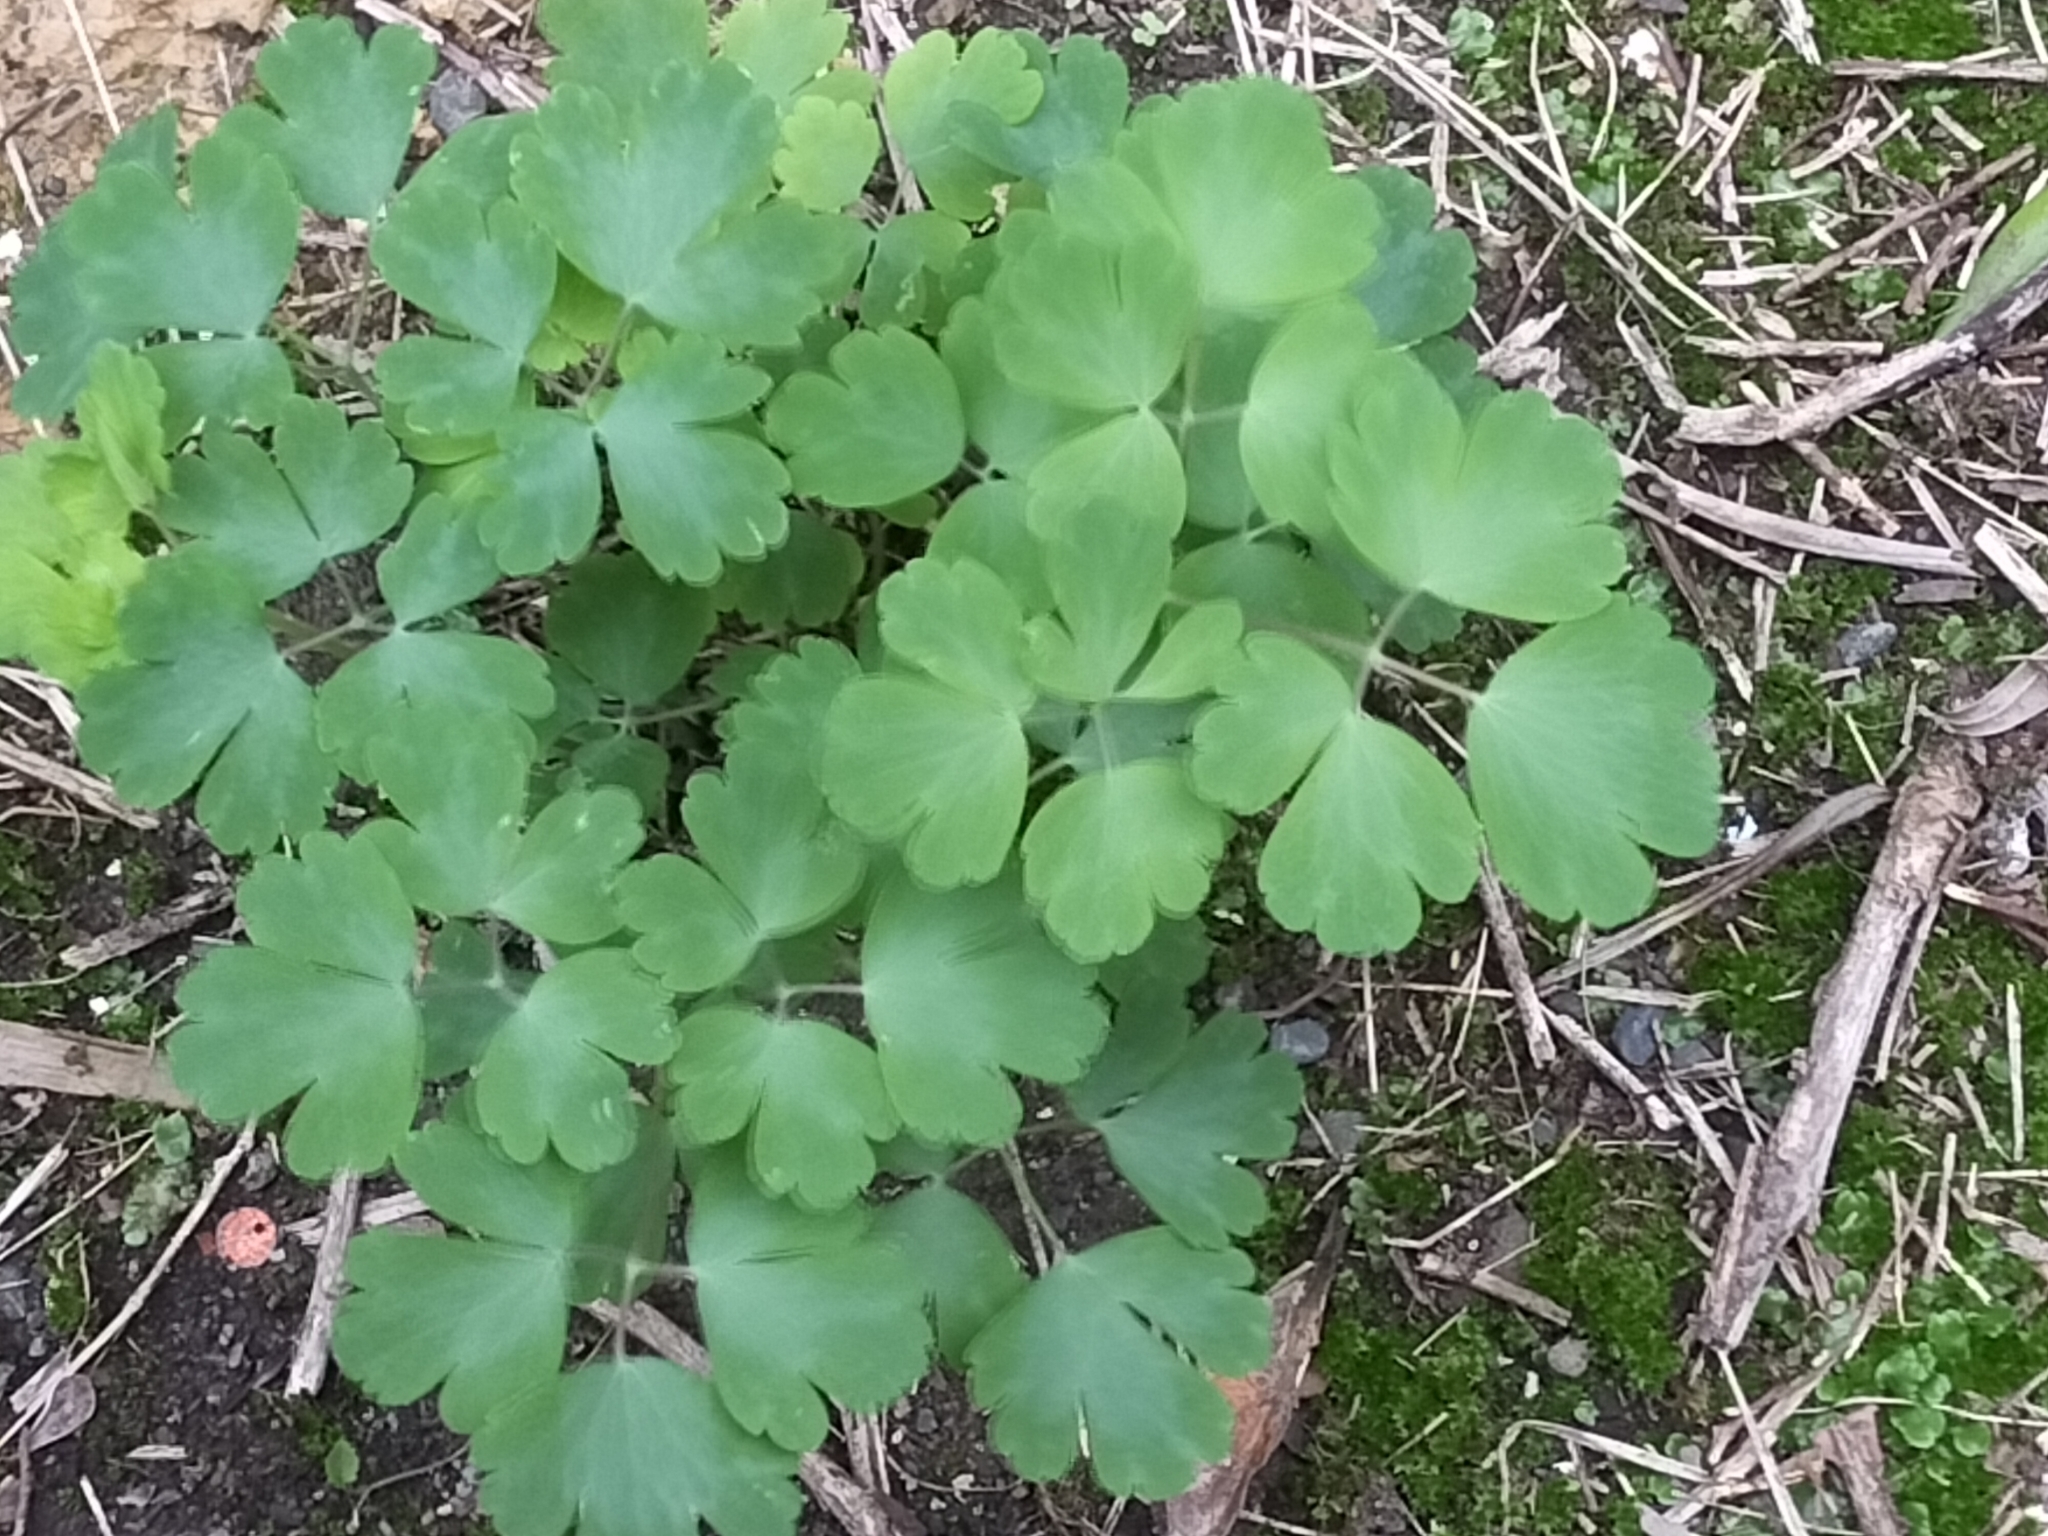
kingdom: Plantae
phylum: Tracheophyta
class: Magnoliopsida
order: Ranunculales
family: Ranunculaceae
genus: Aquilegia
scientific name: Aquilegia vulgaris
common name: Columbine
